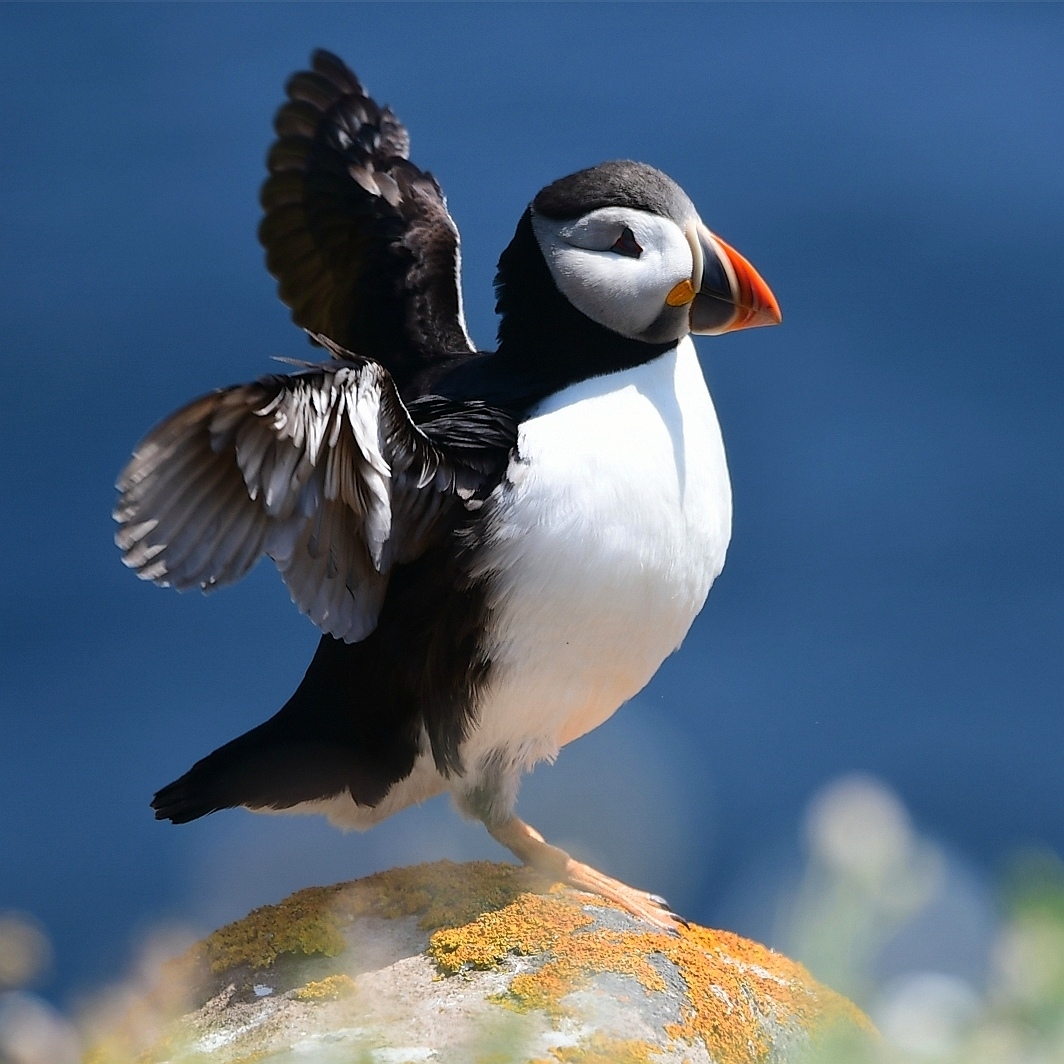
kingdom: Animalia
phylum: Chordata
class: Aves
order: Charadriiformes
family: Alcidae
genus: Fratercula
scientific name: Fratercula arctica
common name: Atlantic puffin
